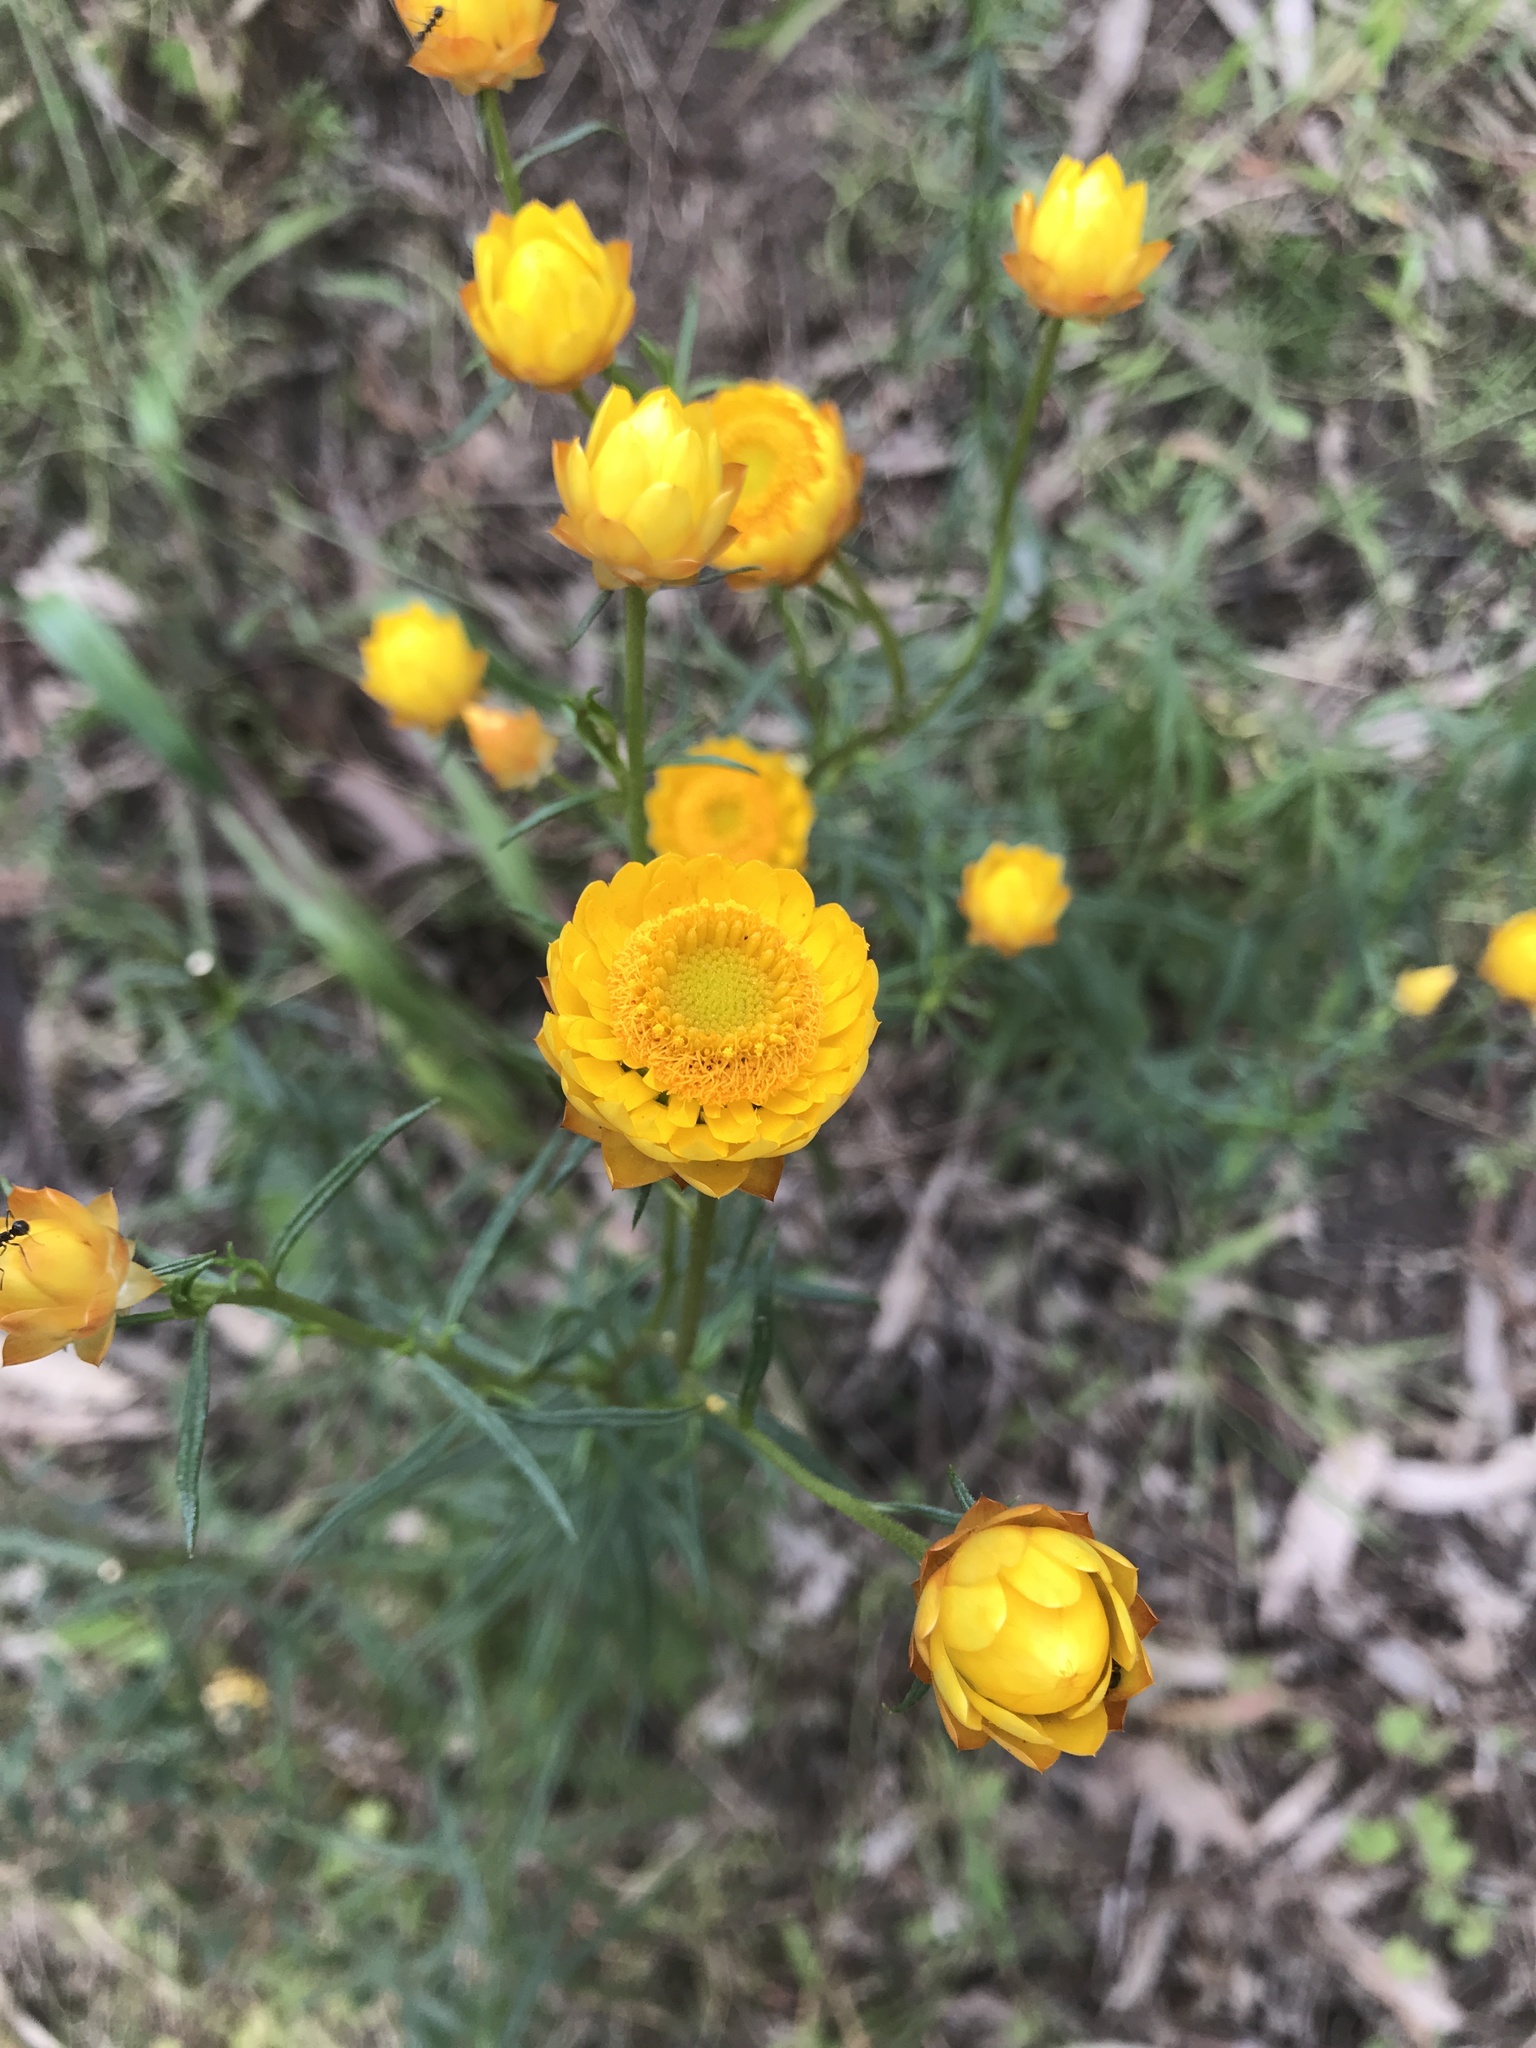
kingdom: Plantae
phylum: Tracheophyta
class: Magnoliopsida
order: Asterales
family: Asteraceae
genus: Xerochrysum
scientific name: Xerochrysum viscosum
